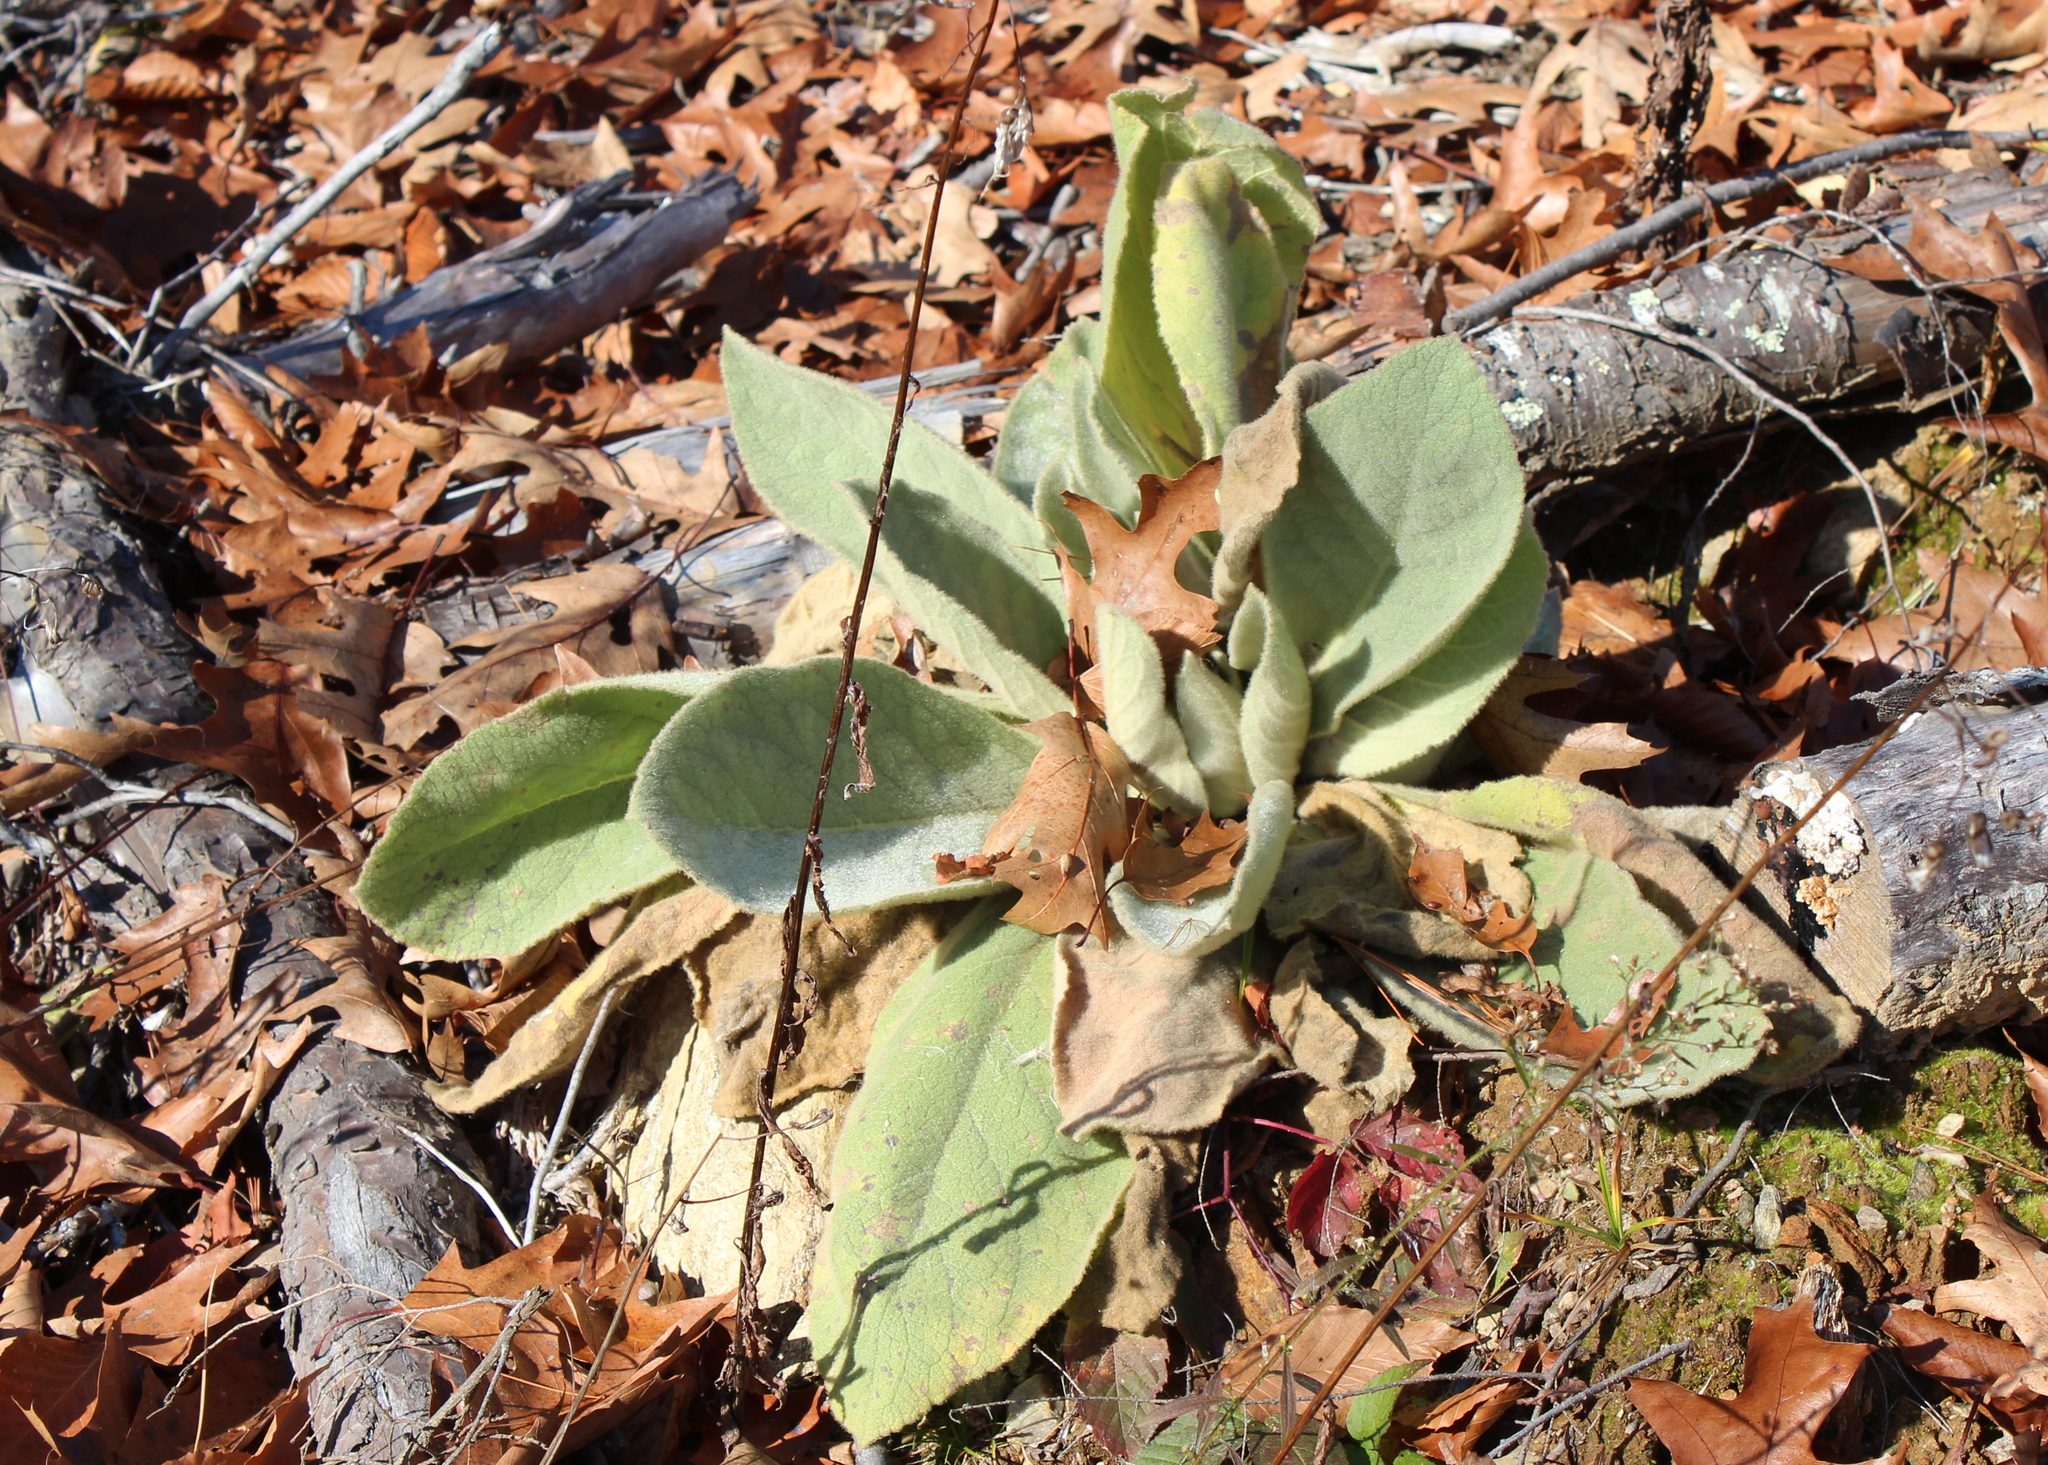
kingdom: Plantae
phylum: Tracheophyta
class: Magnoliopsida
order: Lamiales
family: Scrophulariaceae
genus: Verbascum
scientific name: Verbascum thapsus
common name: Common mullein
